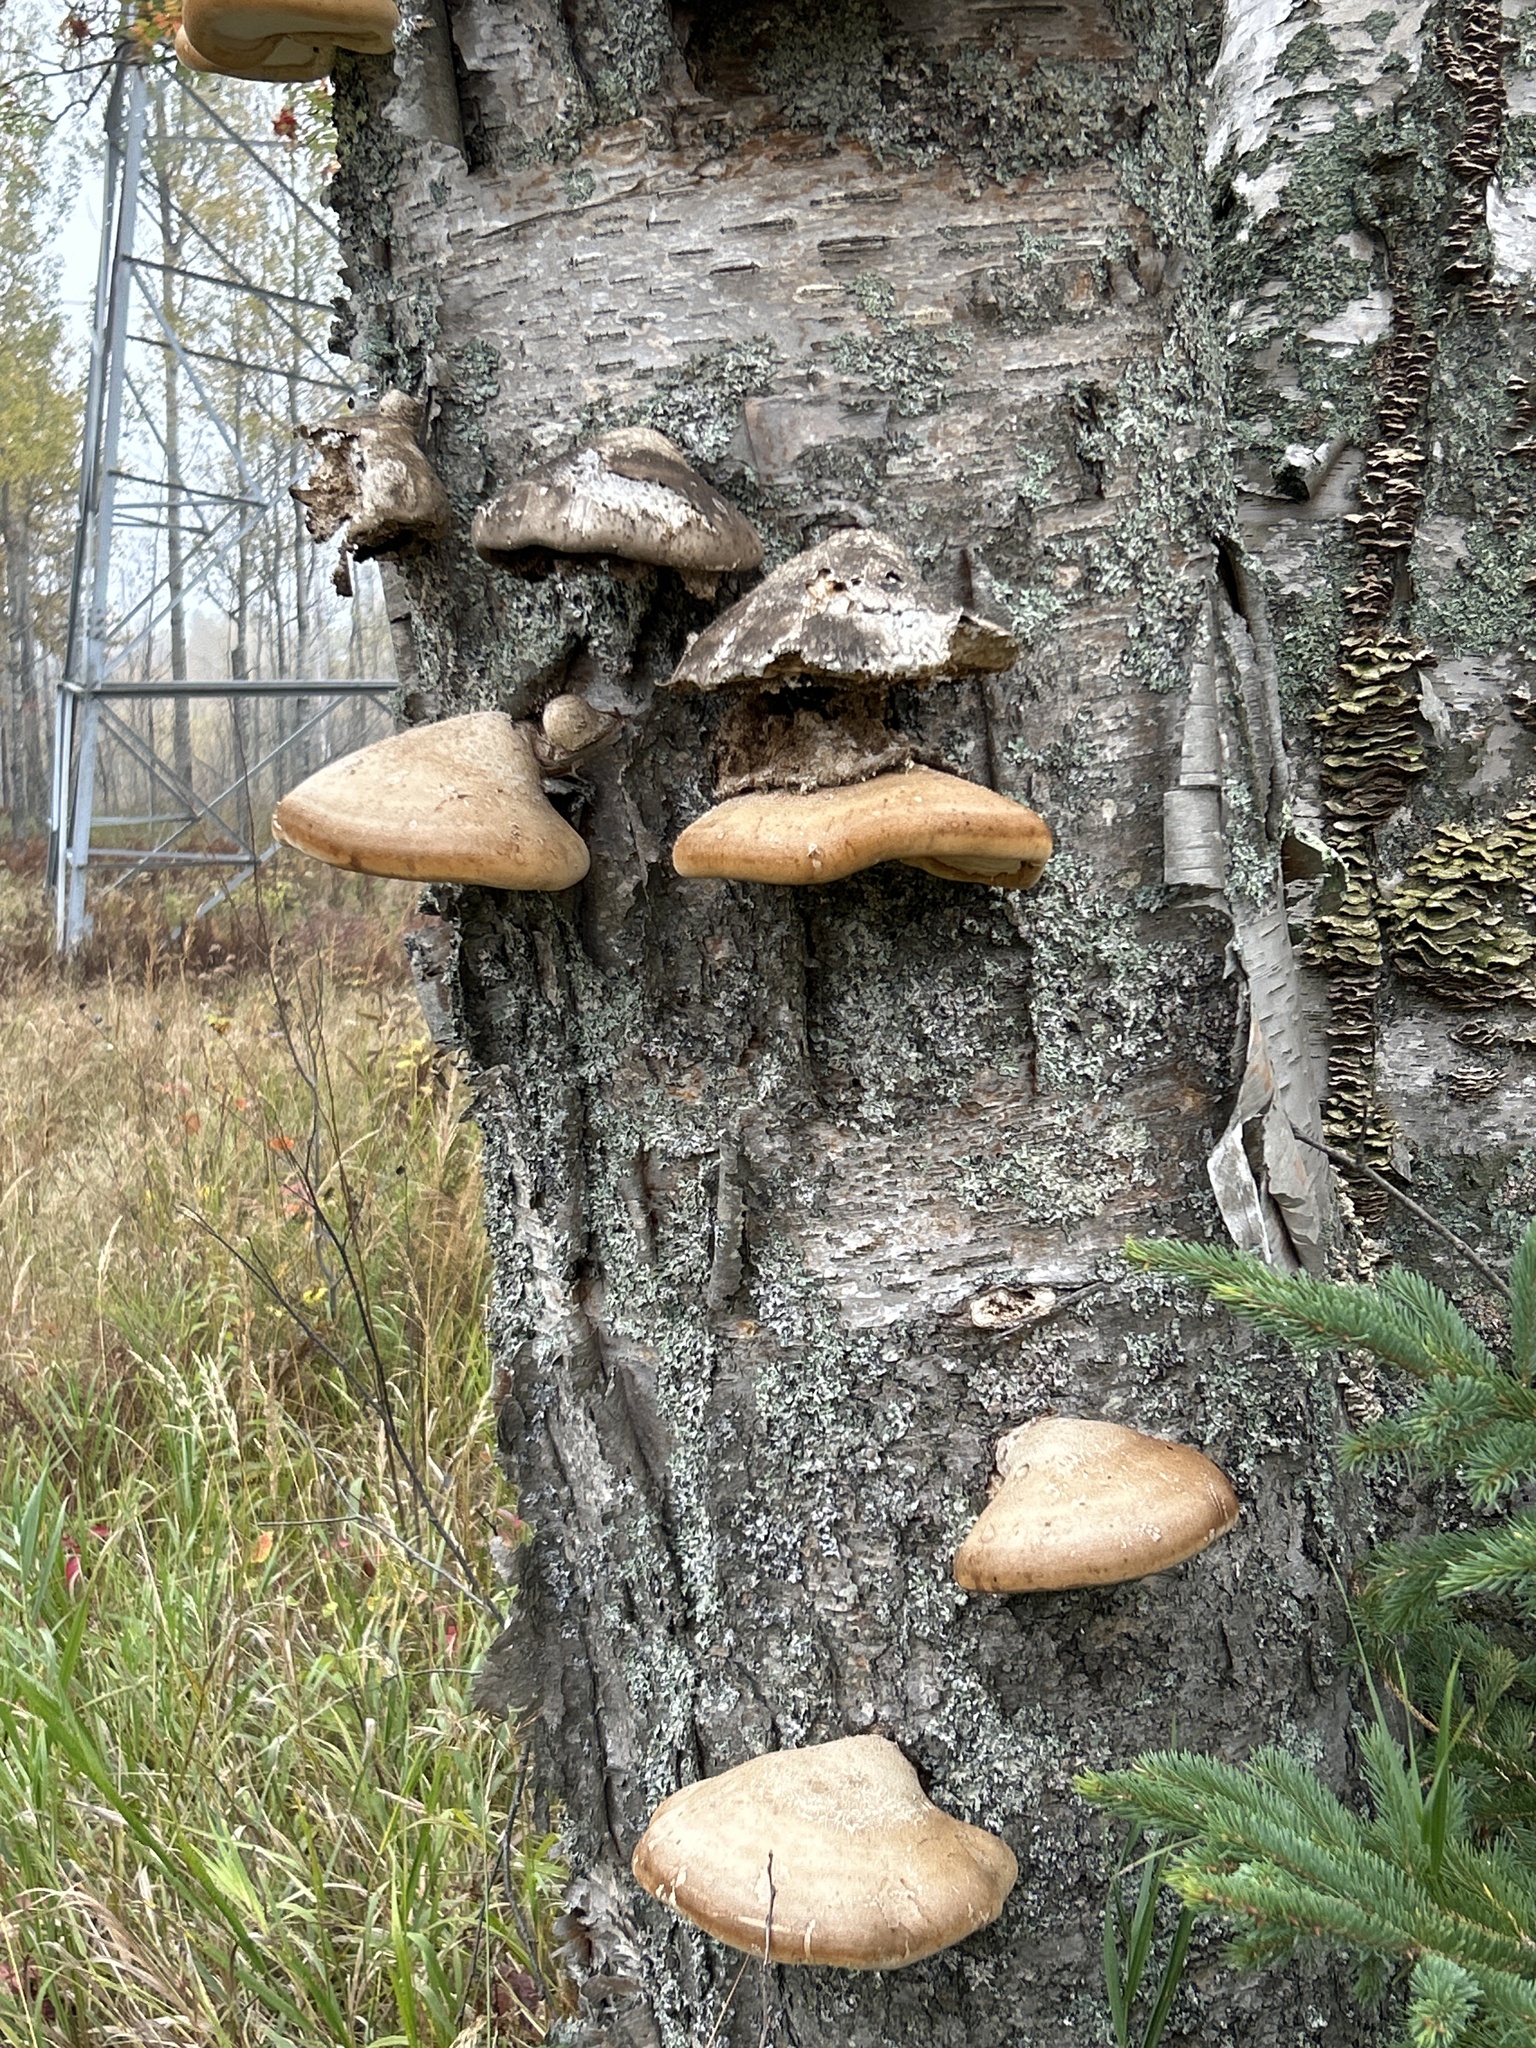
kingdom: Fungi
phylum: Basidiomycota
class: Agaricomycetes
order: Polyporales
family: Fomitopsidaceae
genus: Fomitopsis
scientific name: Fomitopsis betulina
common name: Birch polypore
